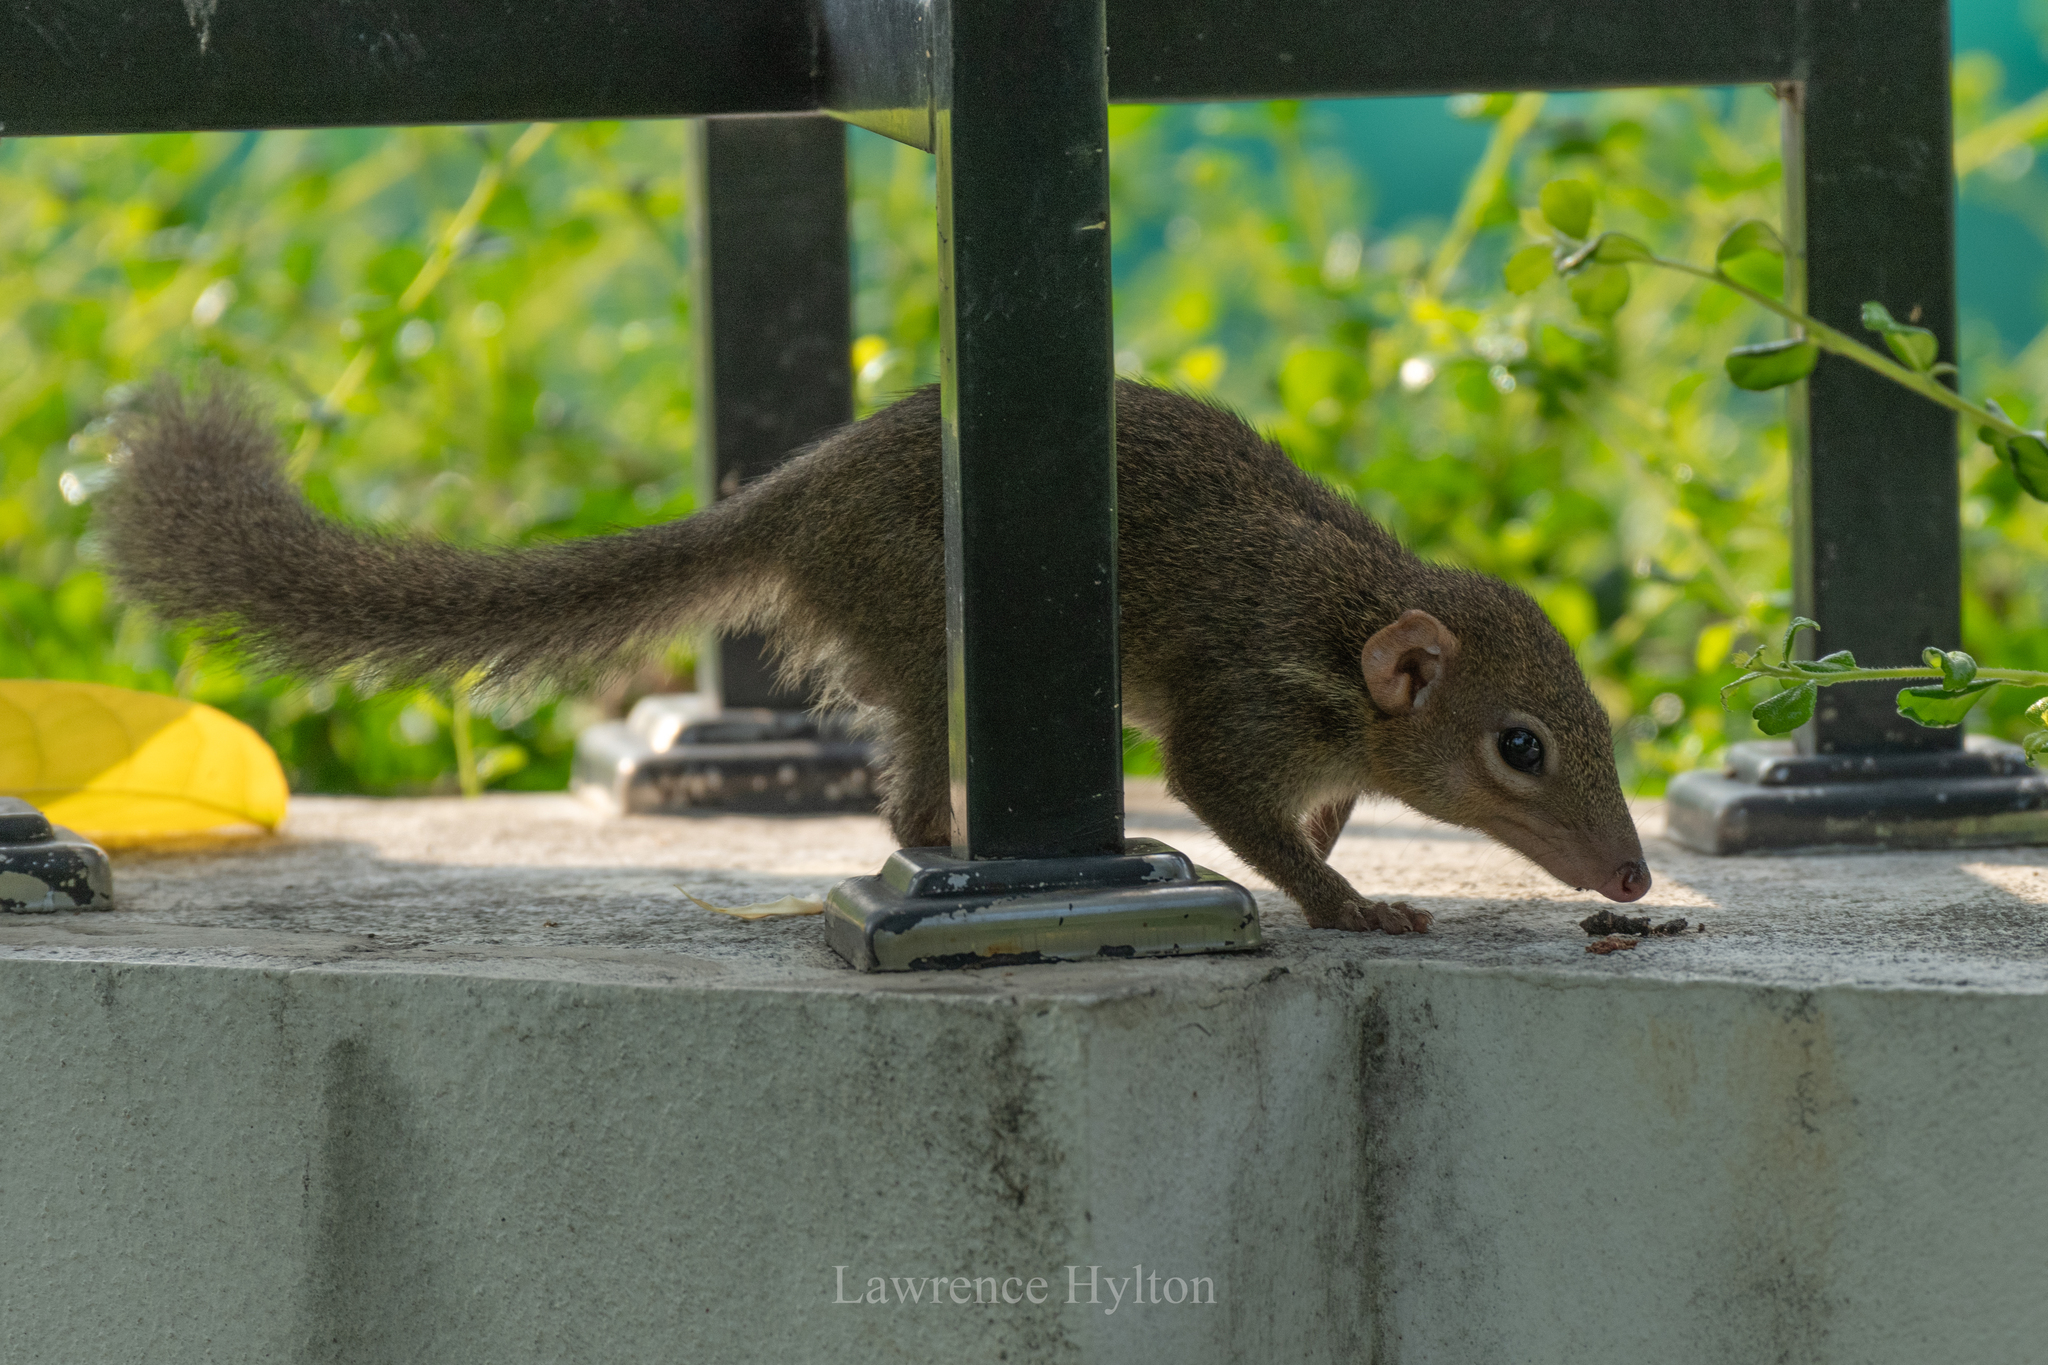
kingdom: Animalia
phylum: Chordata
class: Mammalia
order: Scandentia
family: Tupaiidae
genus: Tupaia
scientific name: Tupaia belangeri
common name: Northern treeshrew
